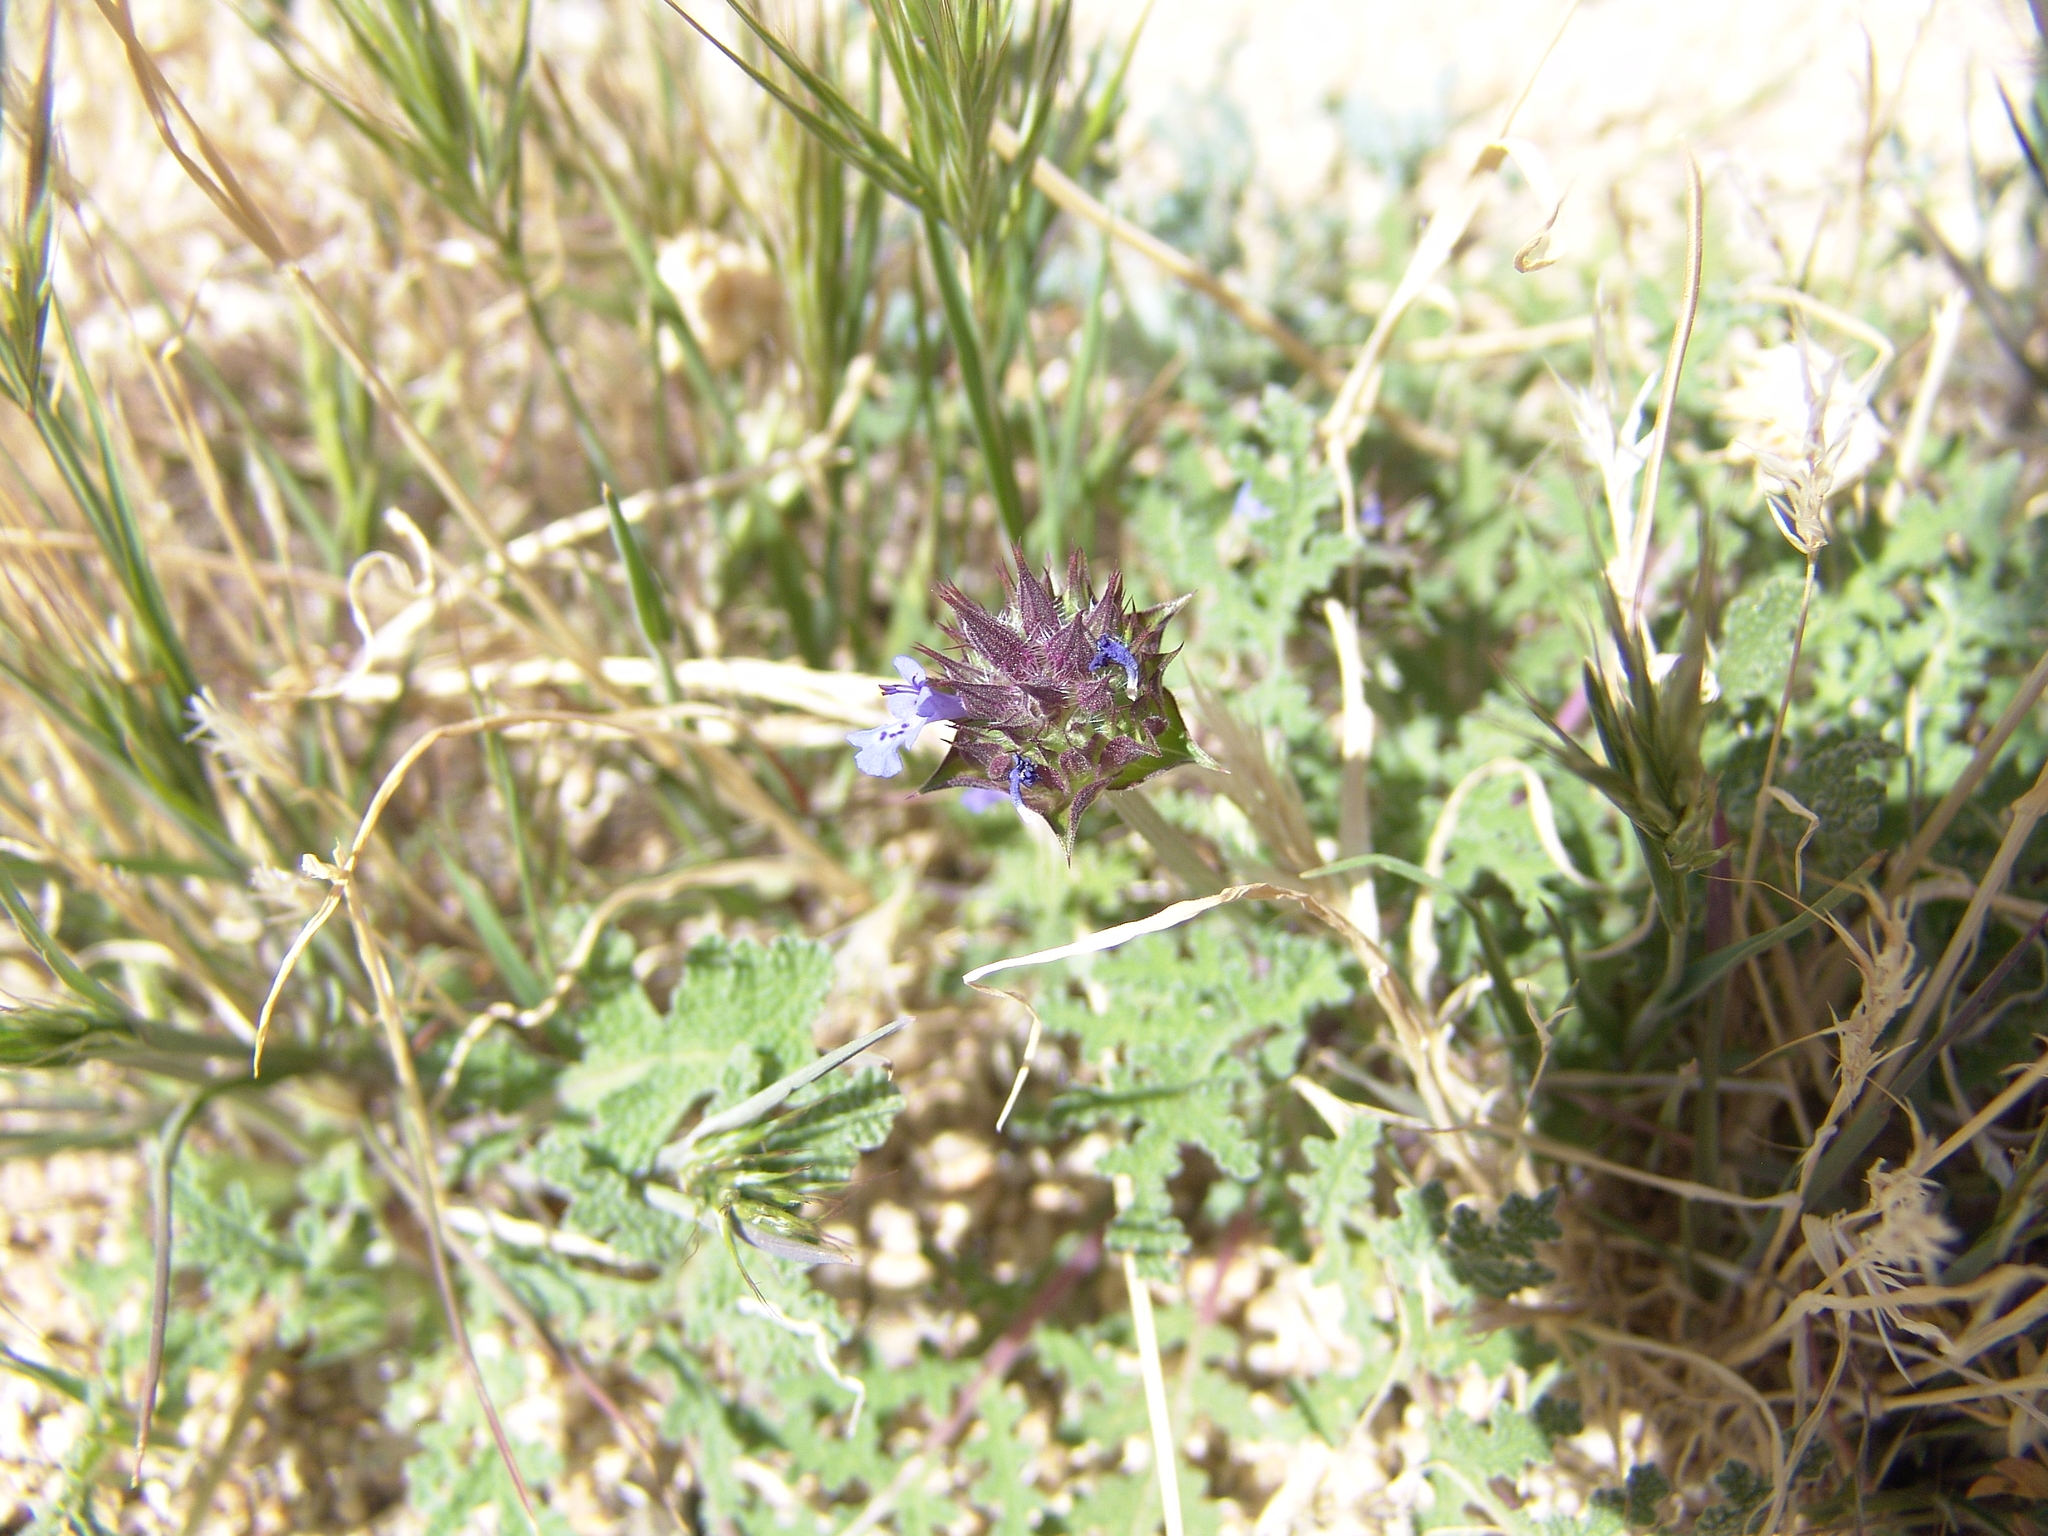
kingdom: Plantae
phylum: Tracheophyta
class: Magnoliopsida
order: Lamiales
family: Lamiaceae
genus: Salvia
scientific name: Salvia columbariae
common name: Chia
